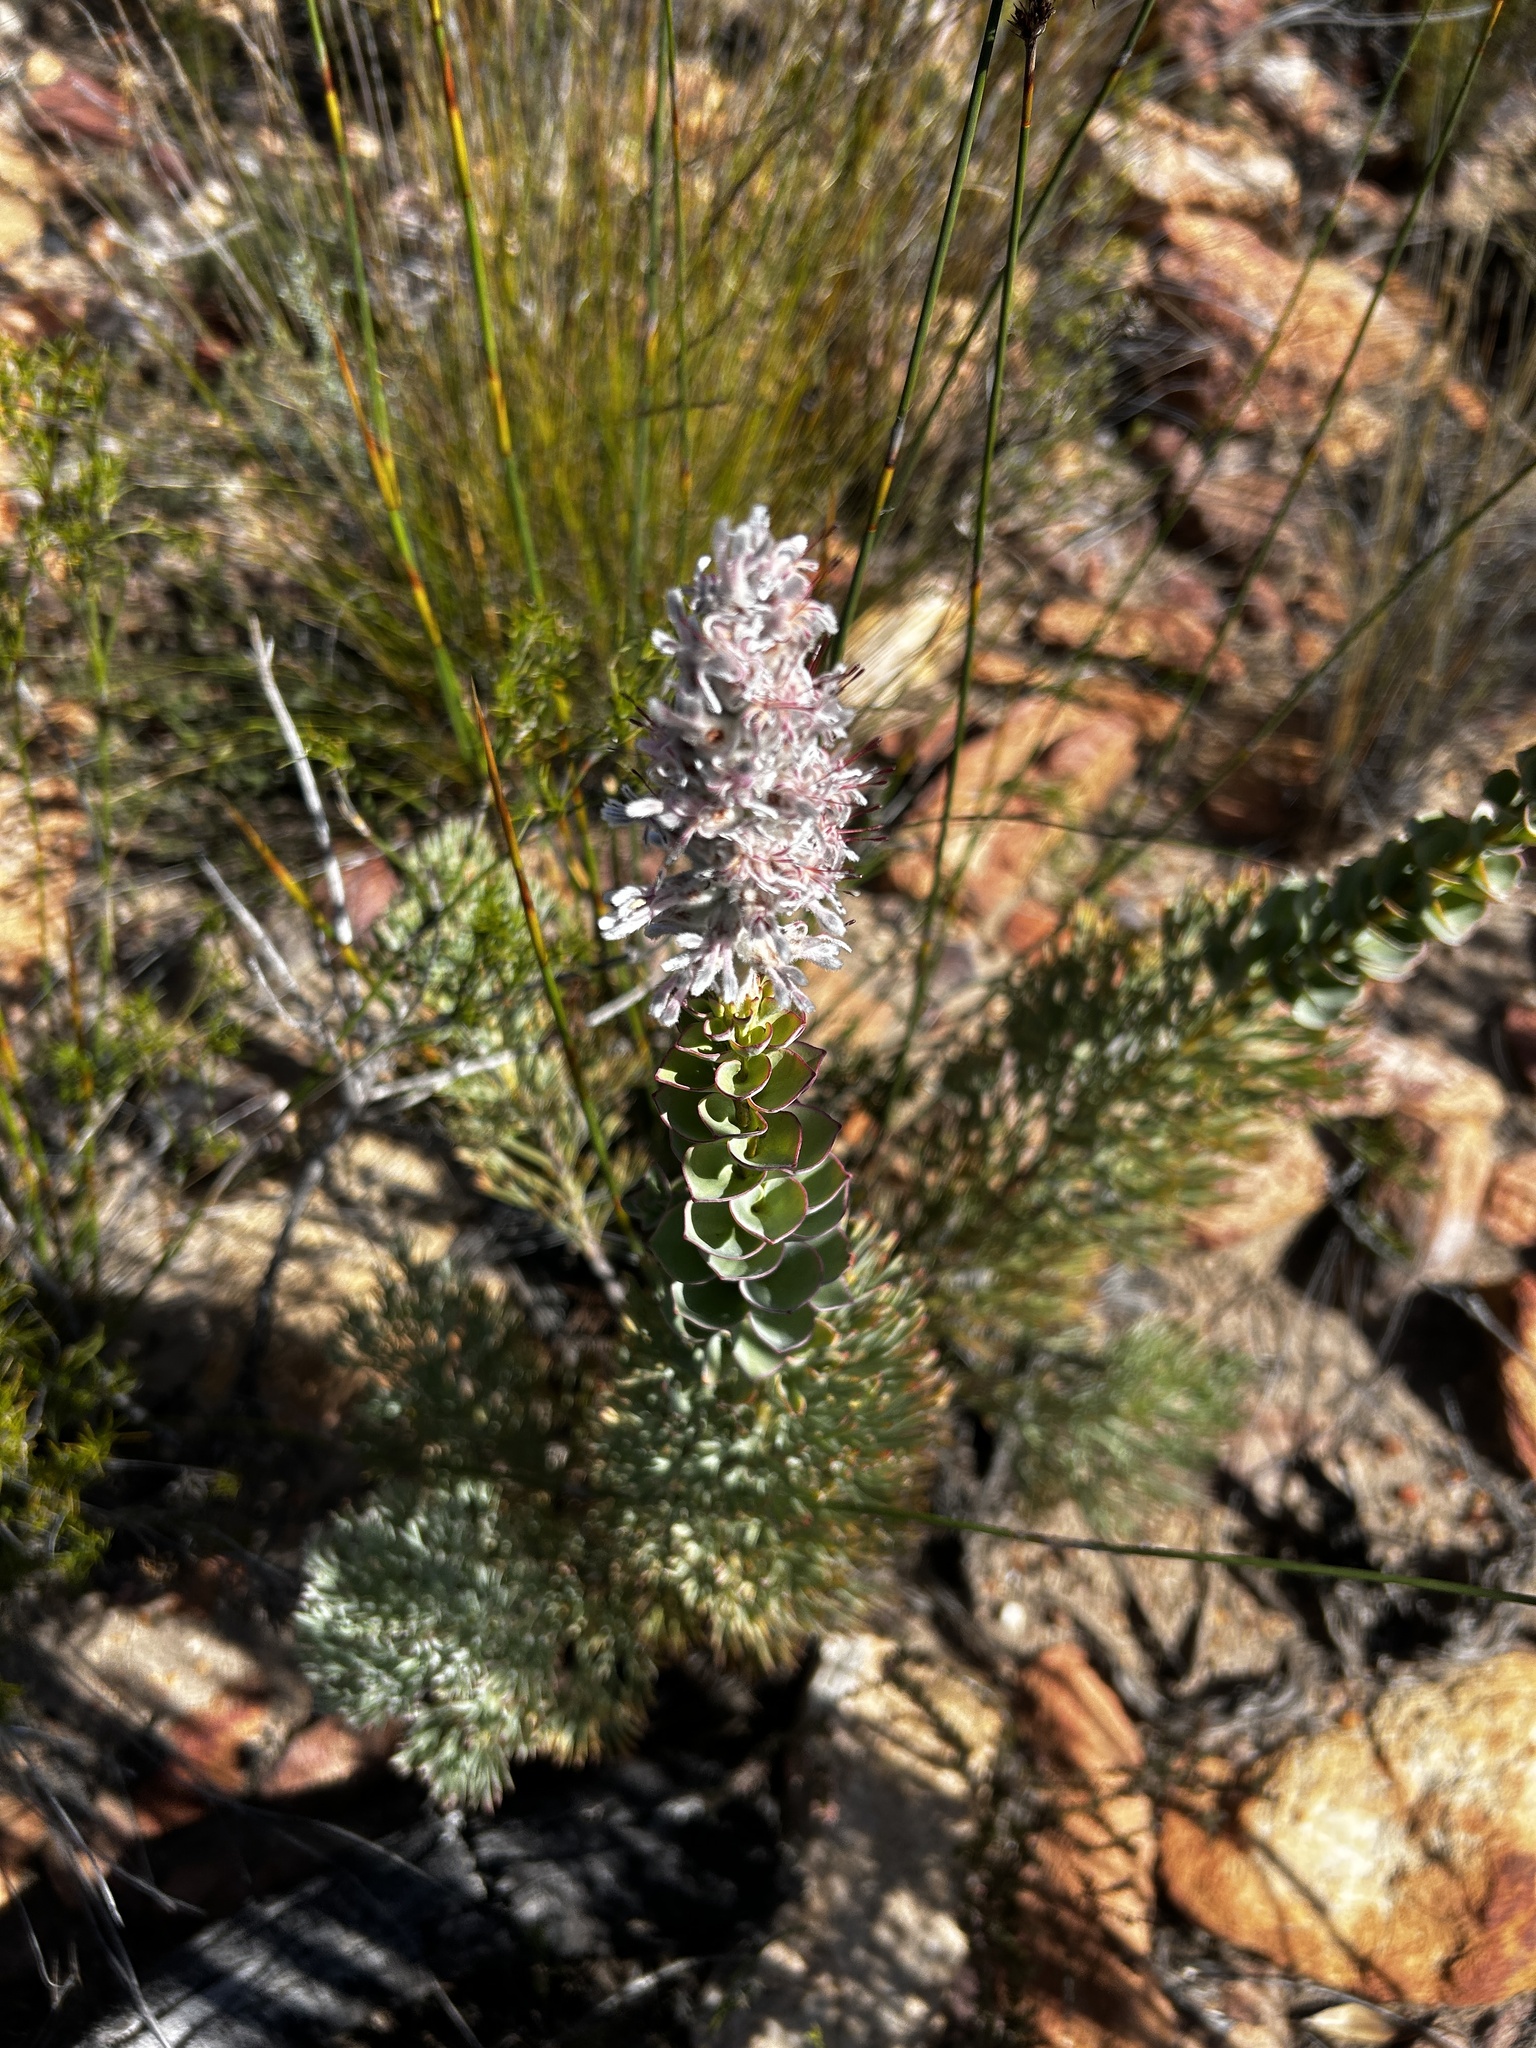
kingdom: Plantae
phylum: Tracheophyta
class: Magnoliopsida
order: Proteales
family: Proteaceae
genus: Paranomus
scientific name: Paranomus spathulatus
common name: Langeberg sceptre
